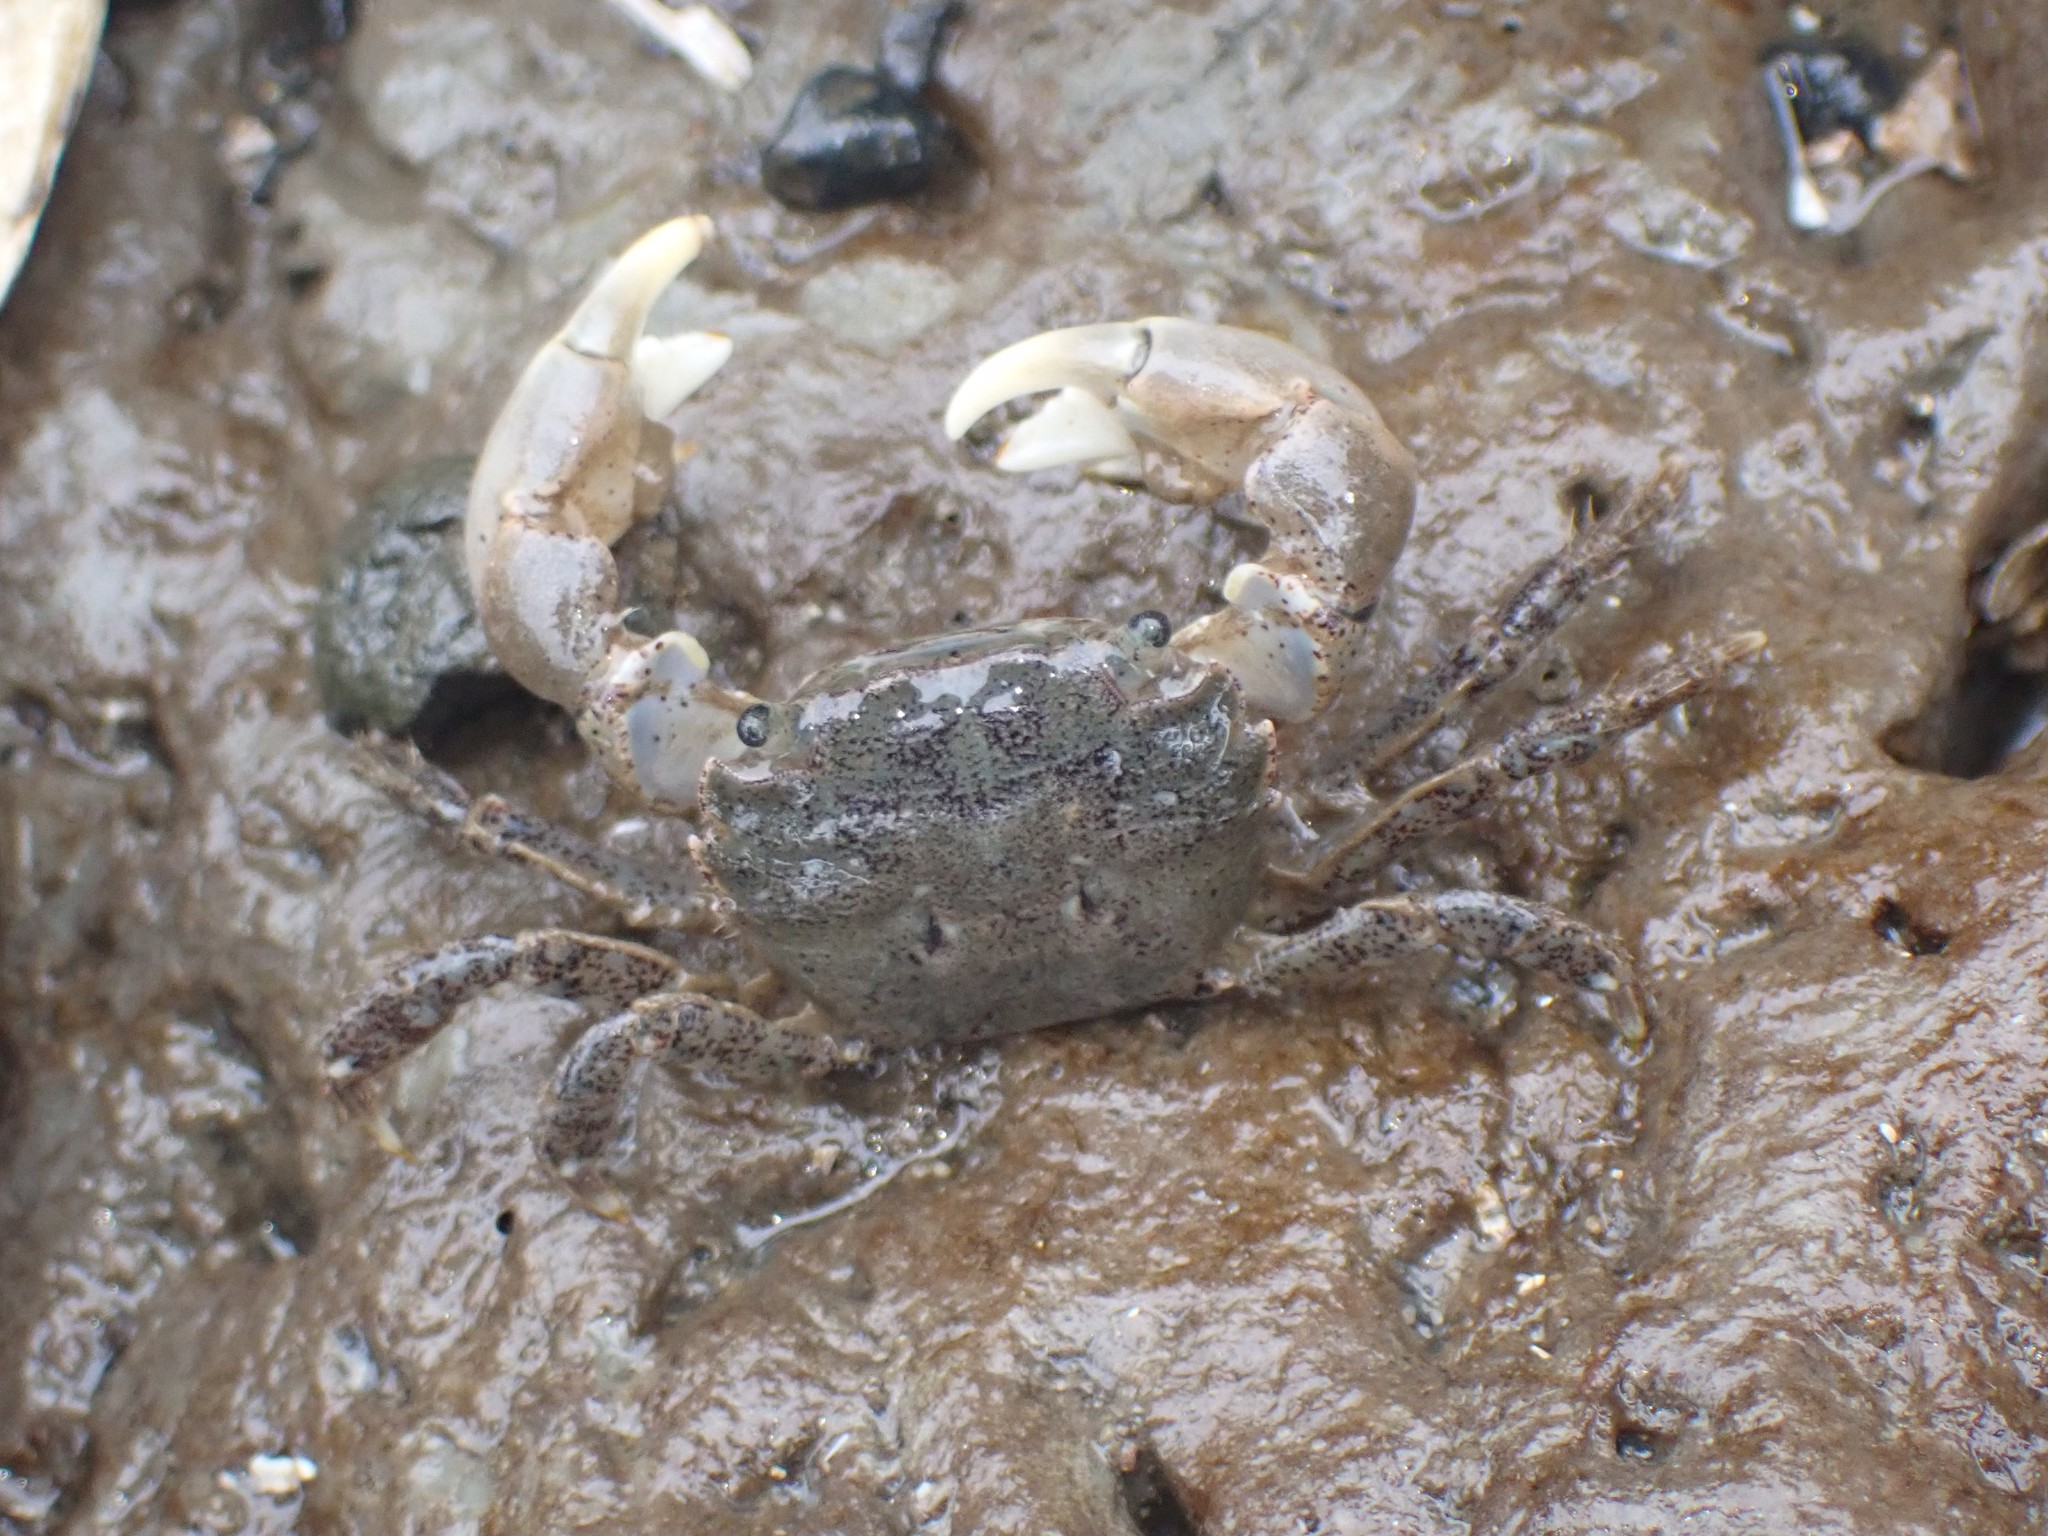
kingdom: Animalia
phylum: Arthropoda
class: Malacostraca
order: Decapoda
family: Varunidae
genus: Hemigrapsus
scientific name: Hemigrapsus oregonensis
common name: Yellow shore crab
